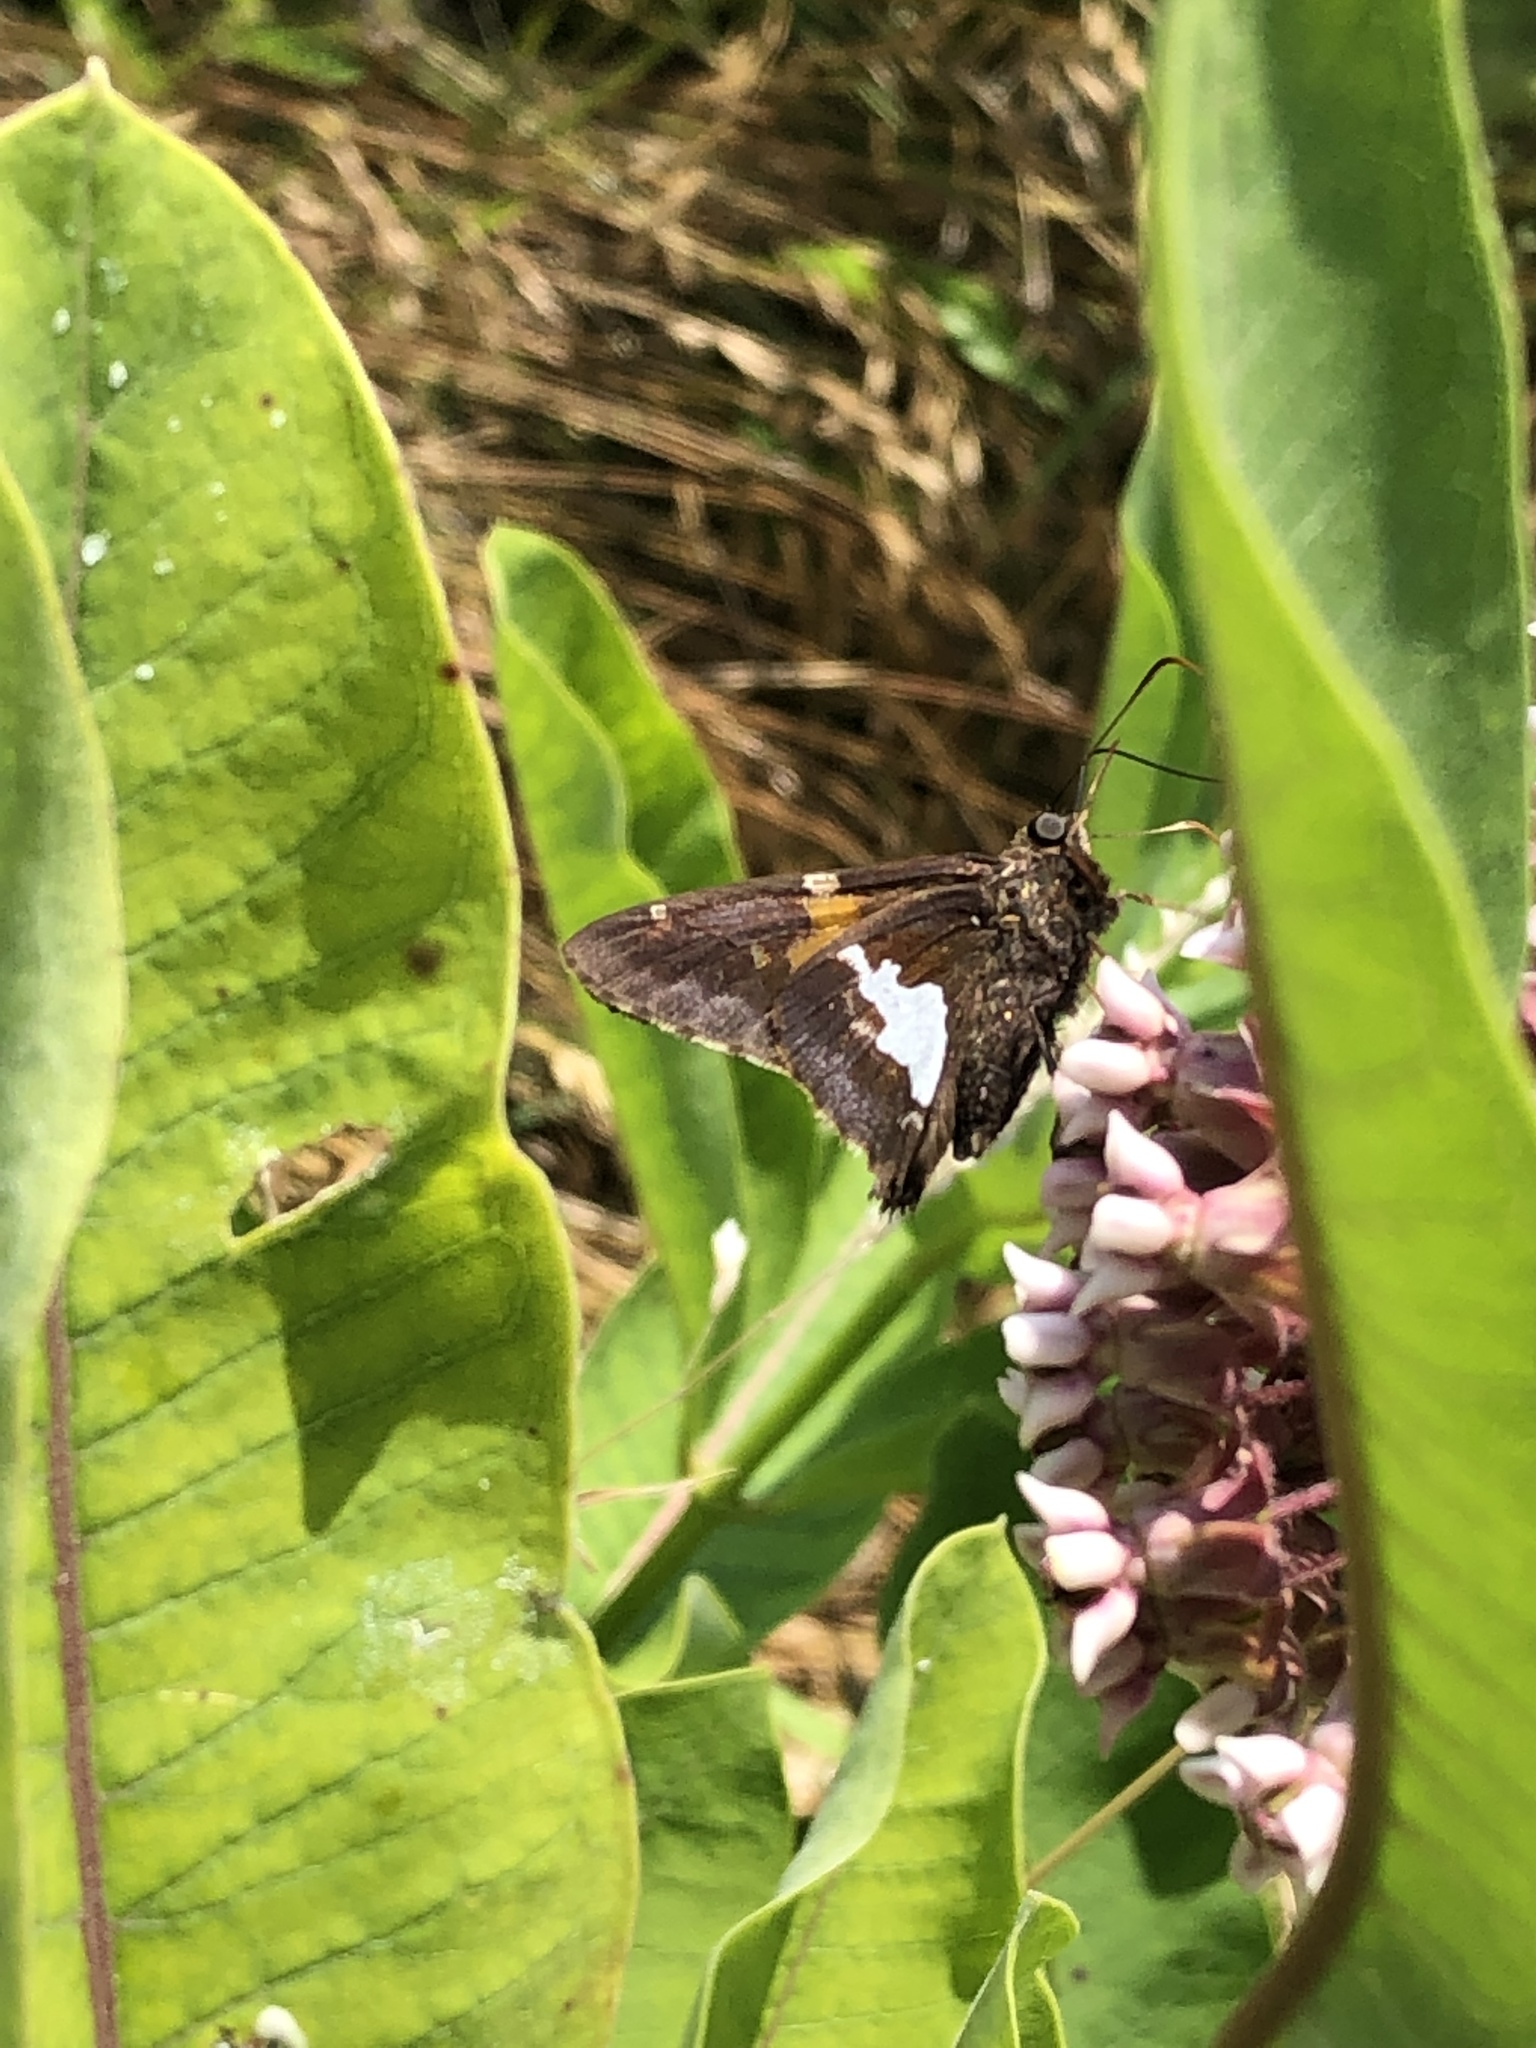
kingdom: Animalia
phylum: Arthropoda
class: Insecta
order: Lepidoptera
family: Hesperiidae
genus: Epargyreus
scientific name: Epargyreus clarus
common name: Silver-spotted skipper
